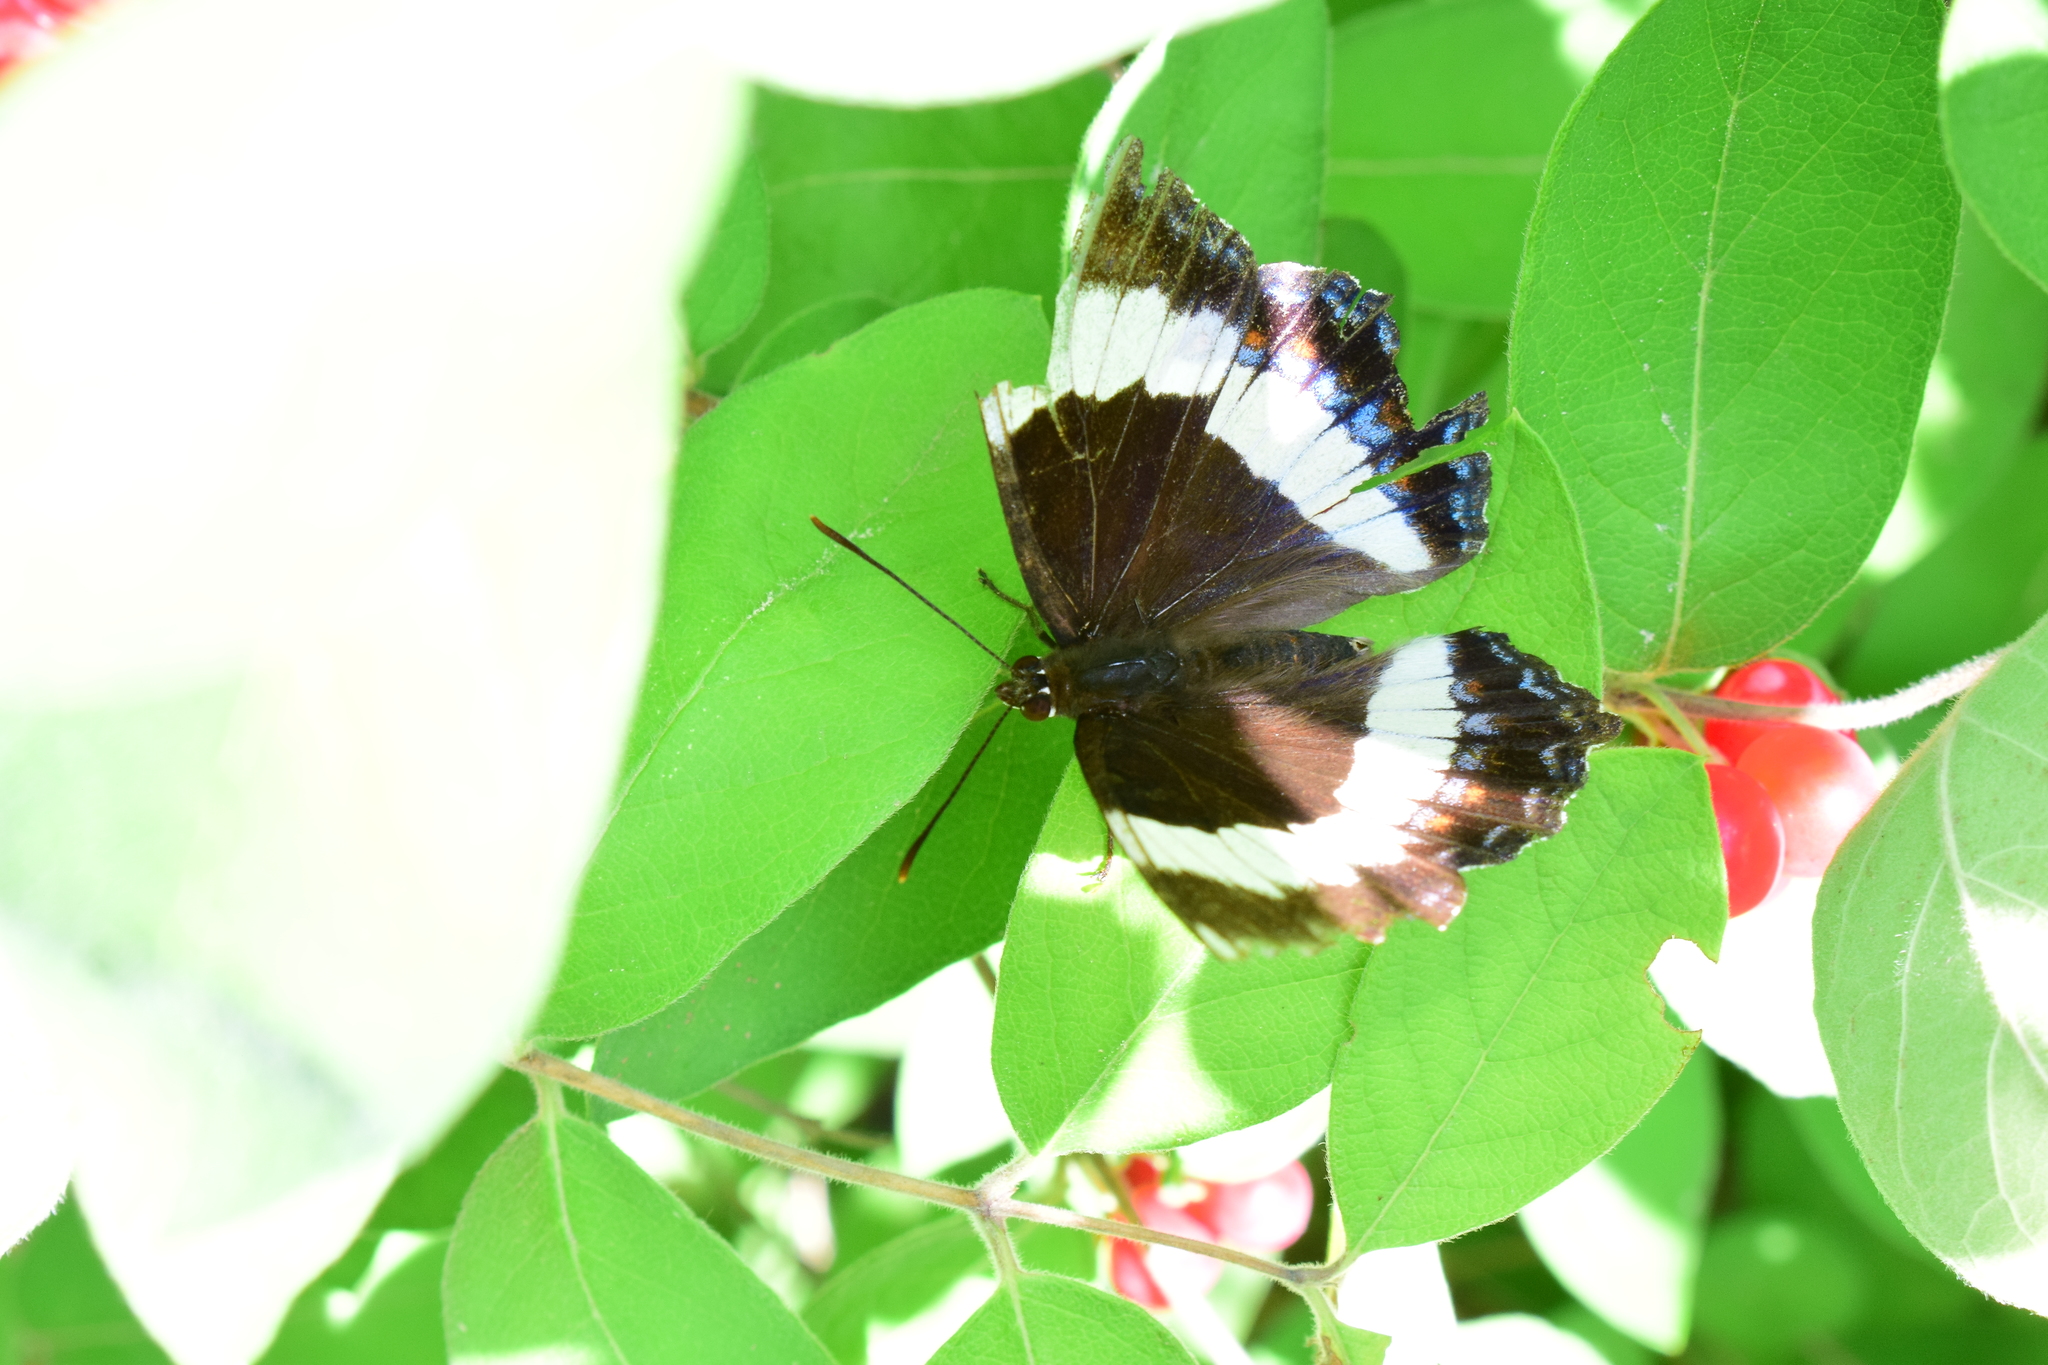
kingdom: Animalia
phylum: Arthropoda
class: Insecta
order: Lepidoptera
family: Nymphalidae
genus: Limenitis
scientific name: Limenitis arthemis
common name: Red-spotted admiral
